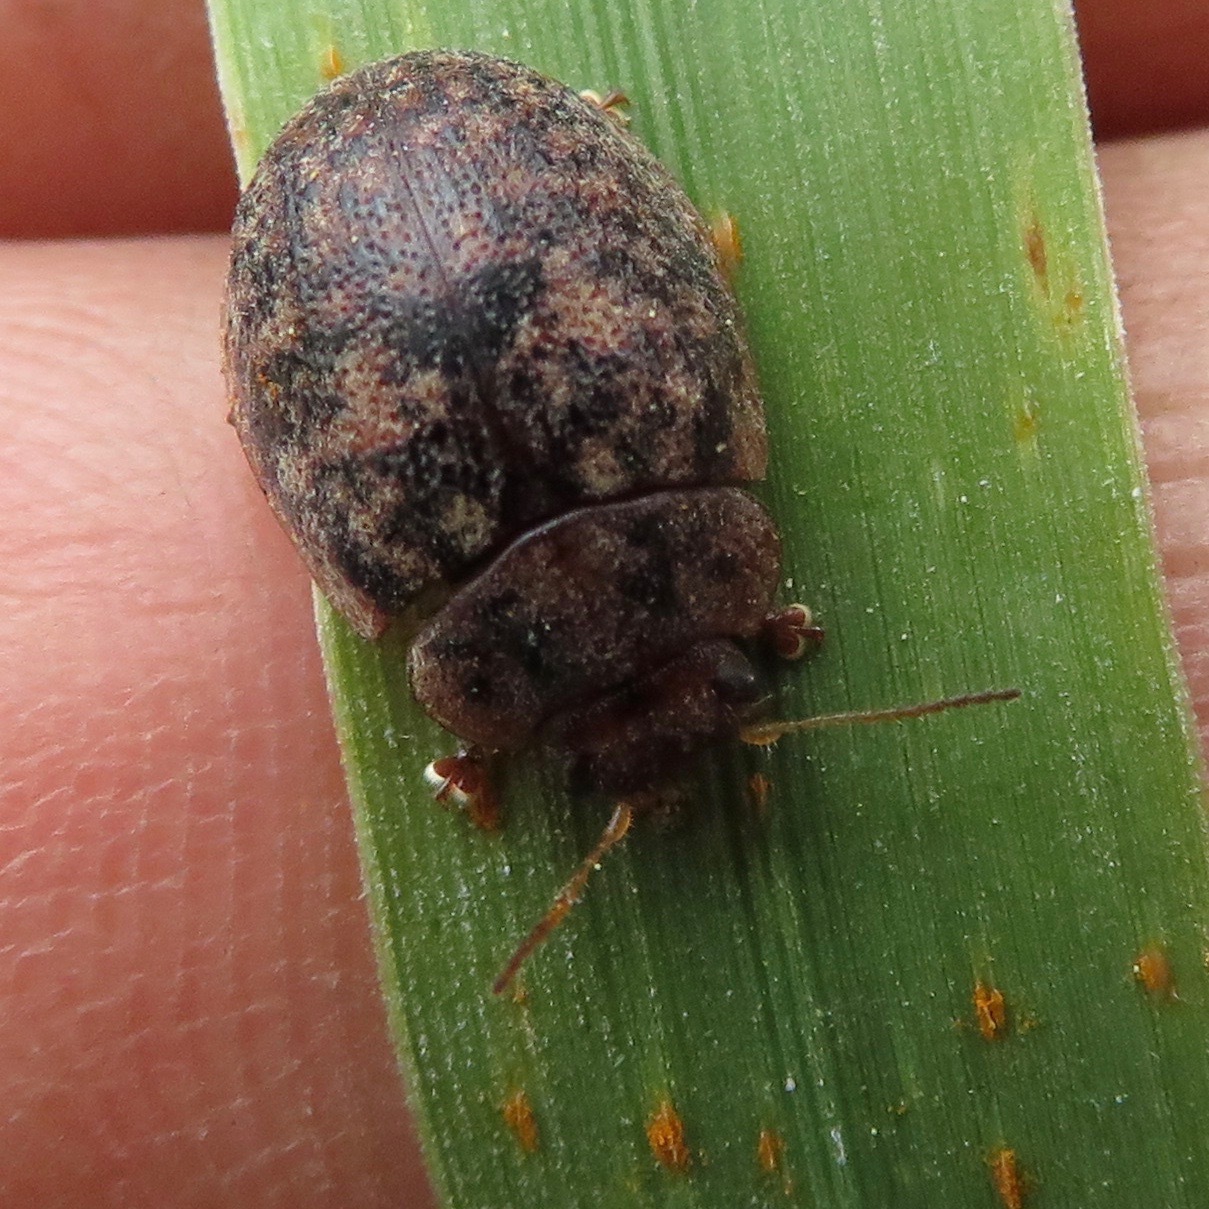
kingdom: Animalia
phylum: Arthropoda
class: Insecta
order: Coleoptera
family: Chrysomelidae
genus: Trachymela
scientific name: Trachymela sloanei
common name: Australian tortoise beetle
